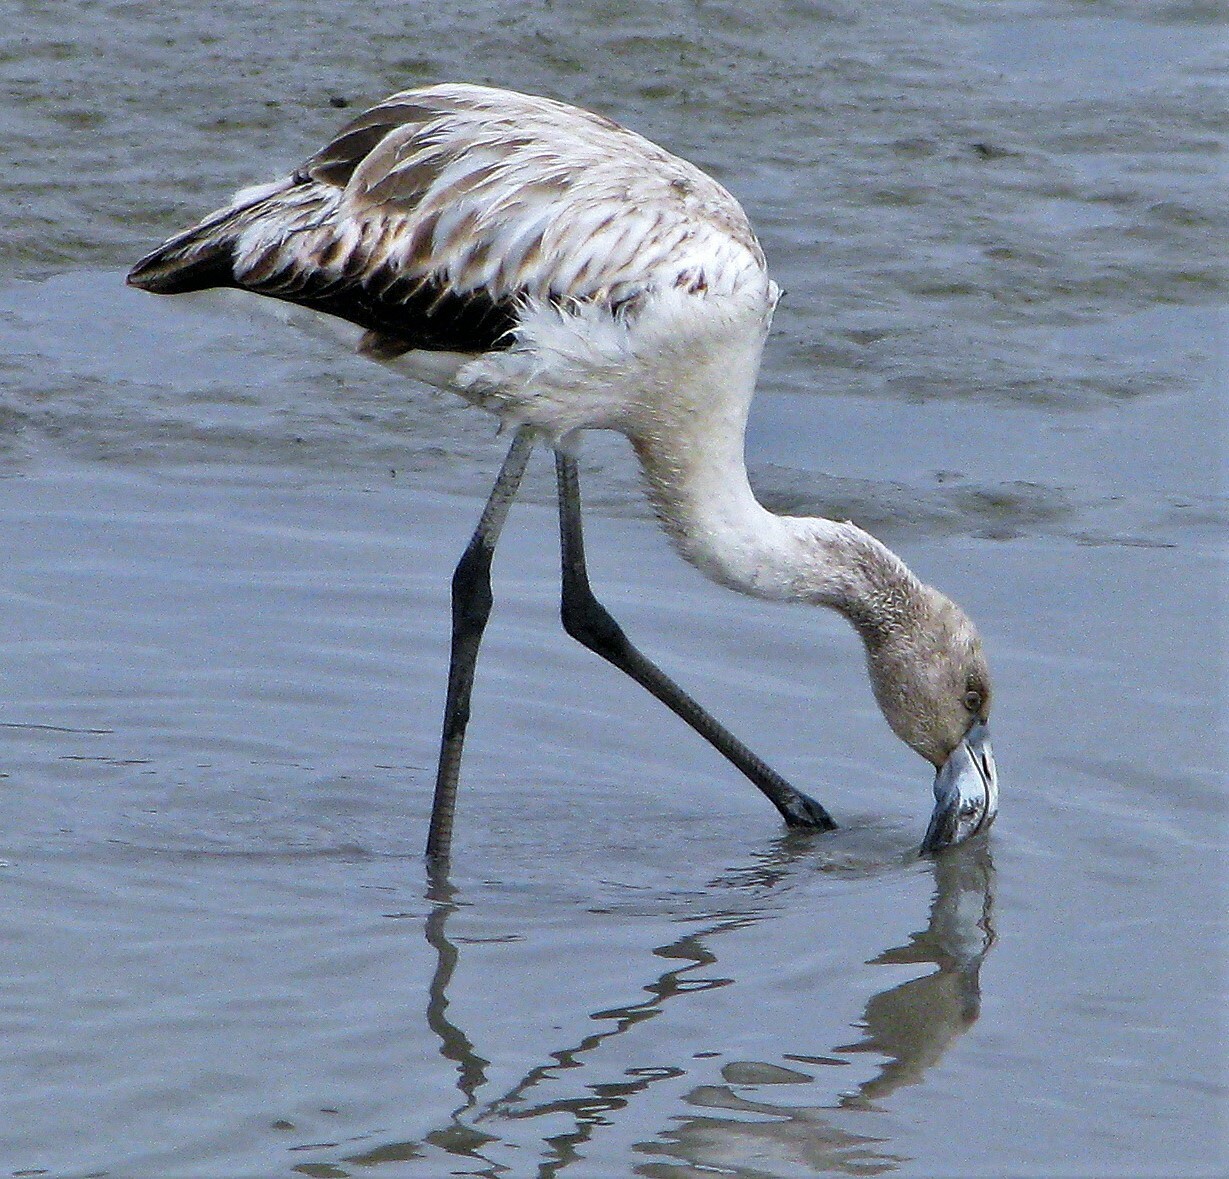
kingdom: Animalia
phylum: Chordata
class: Aves
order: Phoenicopteriformes
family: Phoenicopteridae
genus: Phoenicopterus
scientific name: Phoenicopterus chilensis
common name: Chilean flamingo
